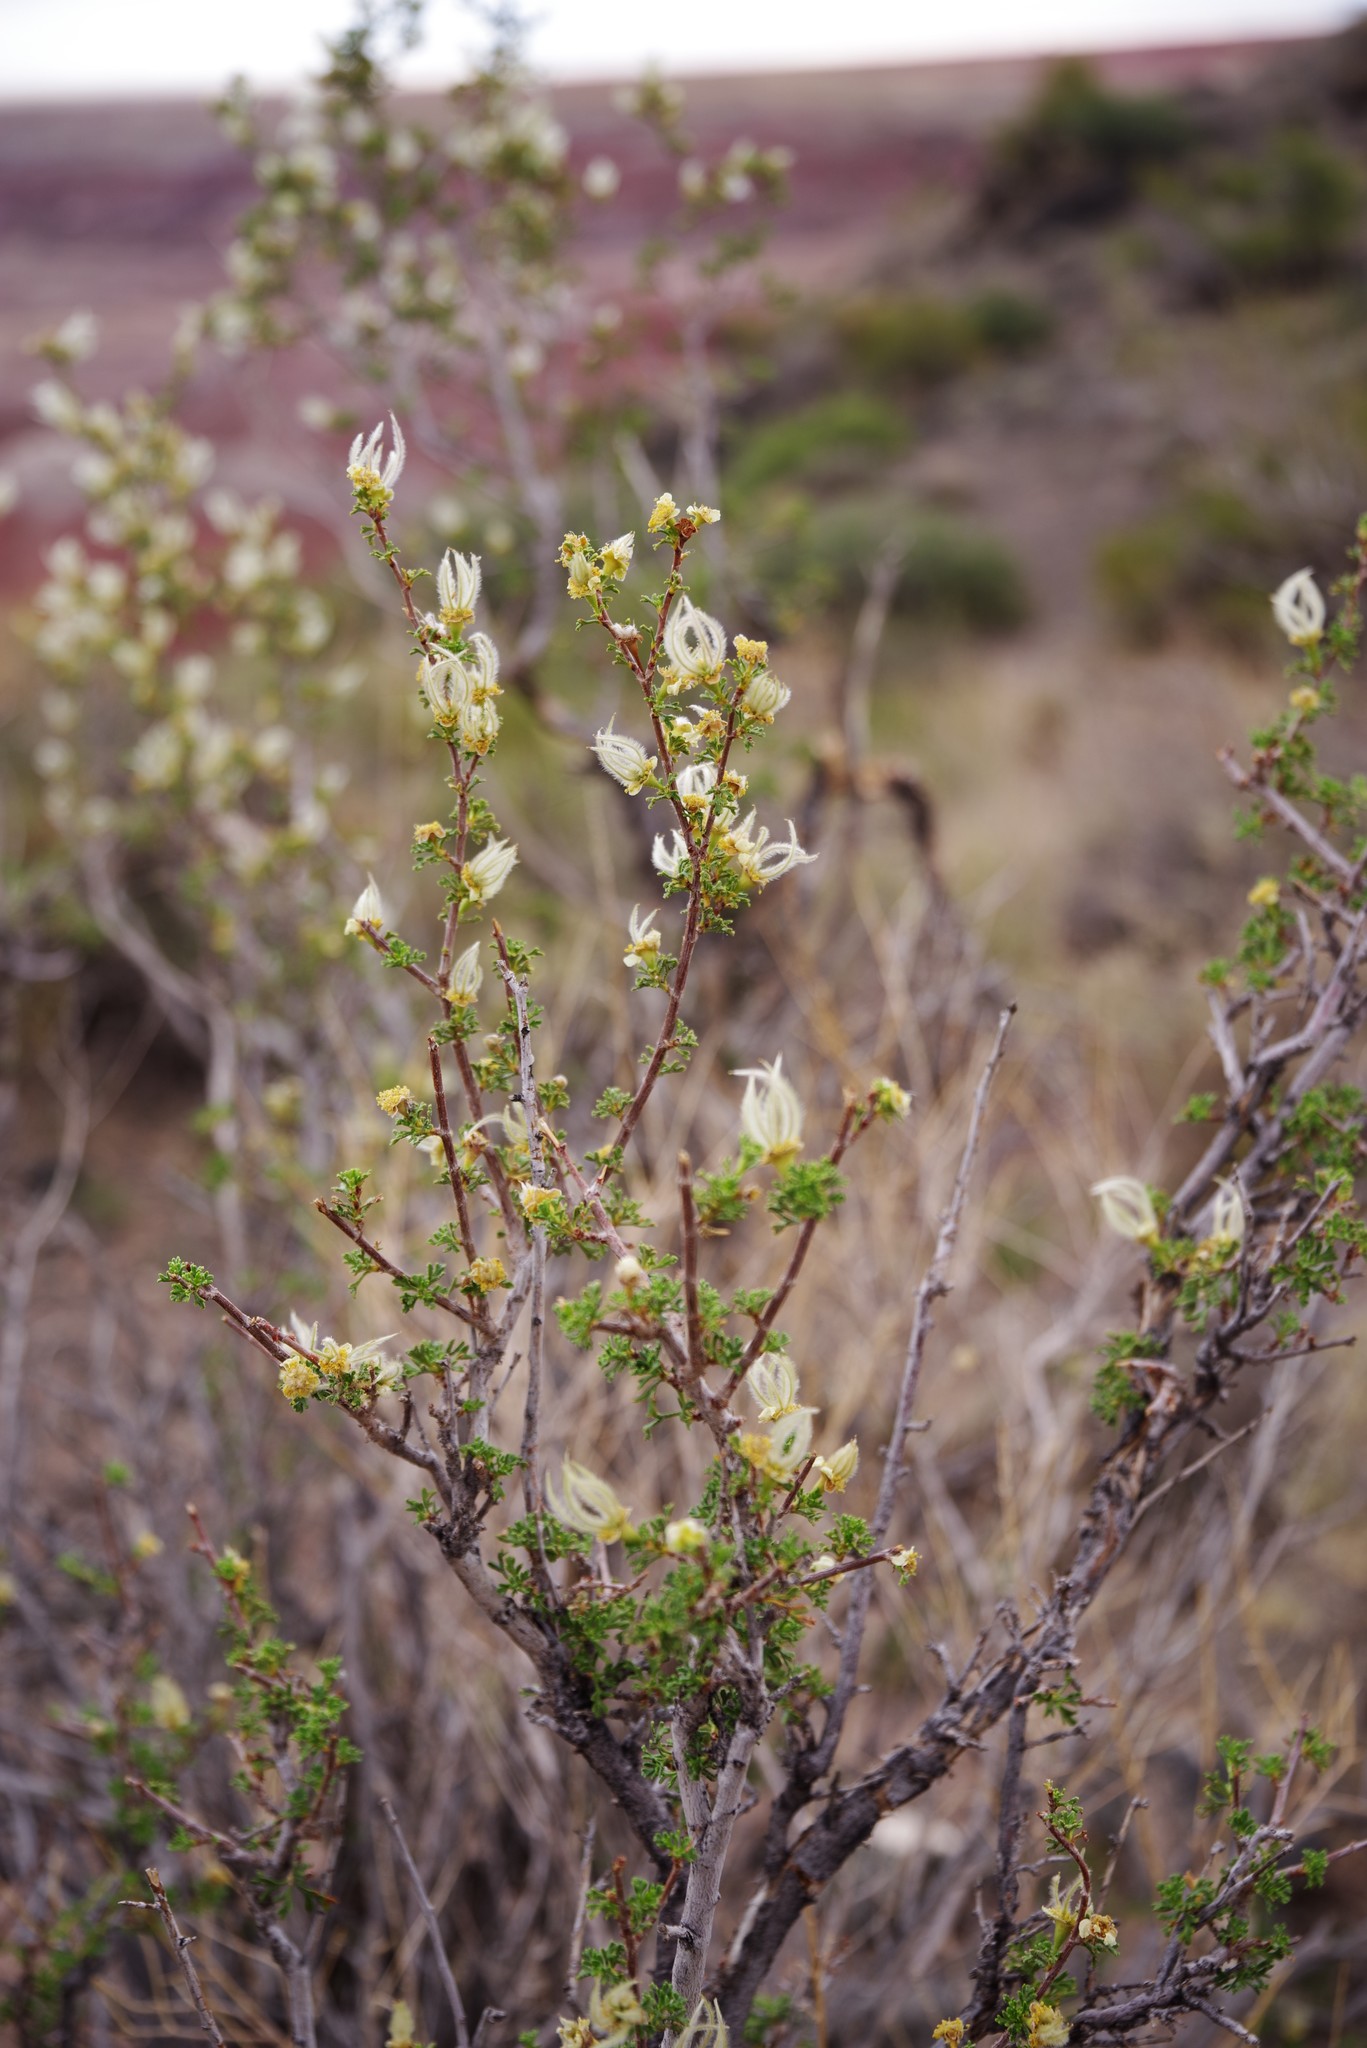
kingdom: Plantae
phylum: Tracheophyta
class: Magnoliopsida
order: Rosales
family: Rosaceae
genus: Purshia
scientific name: Purshia stansburiana
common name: Stansbury's cliffrose
